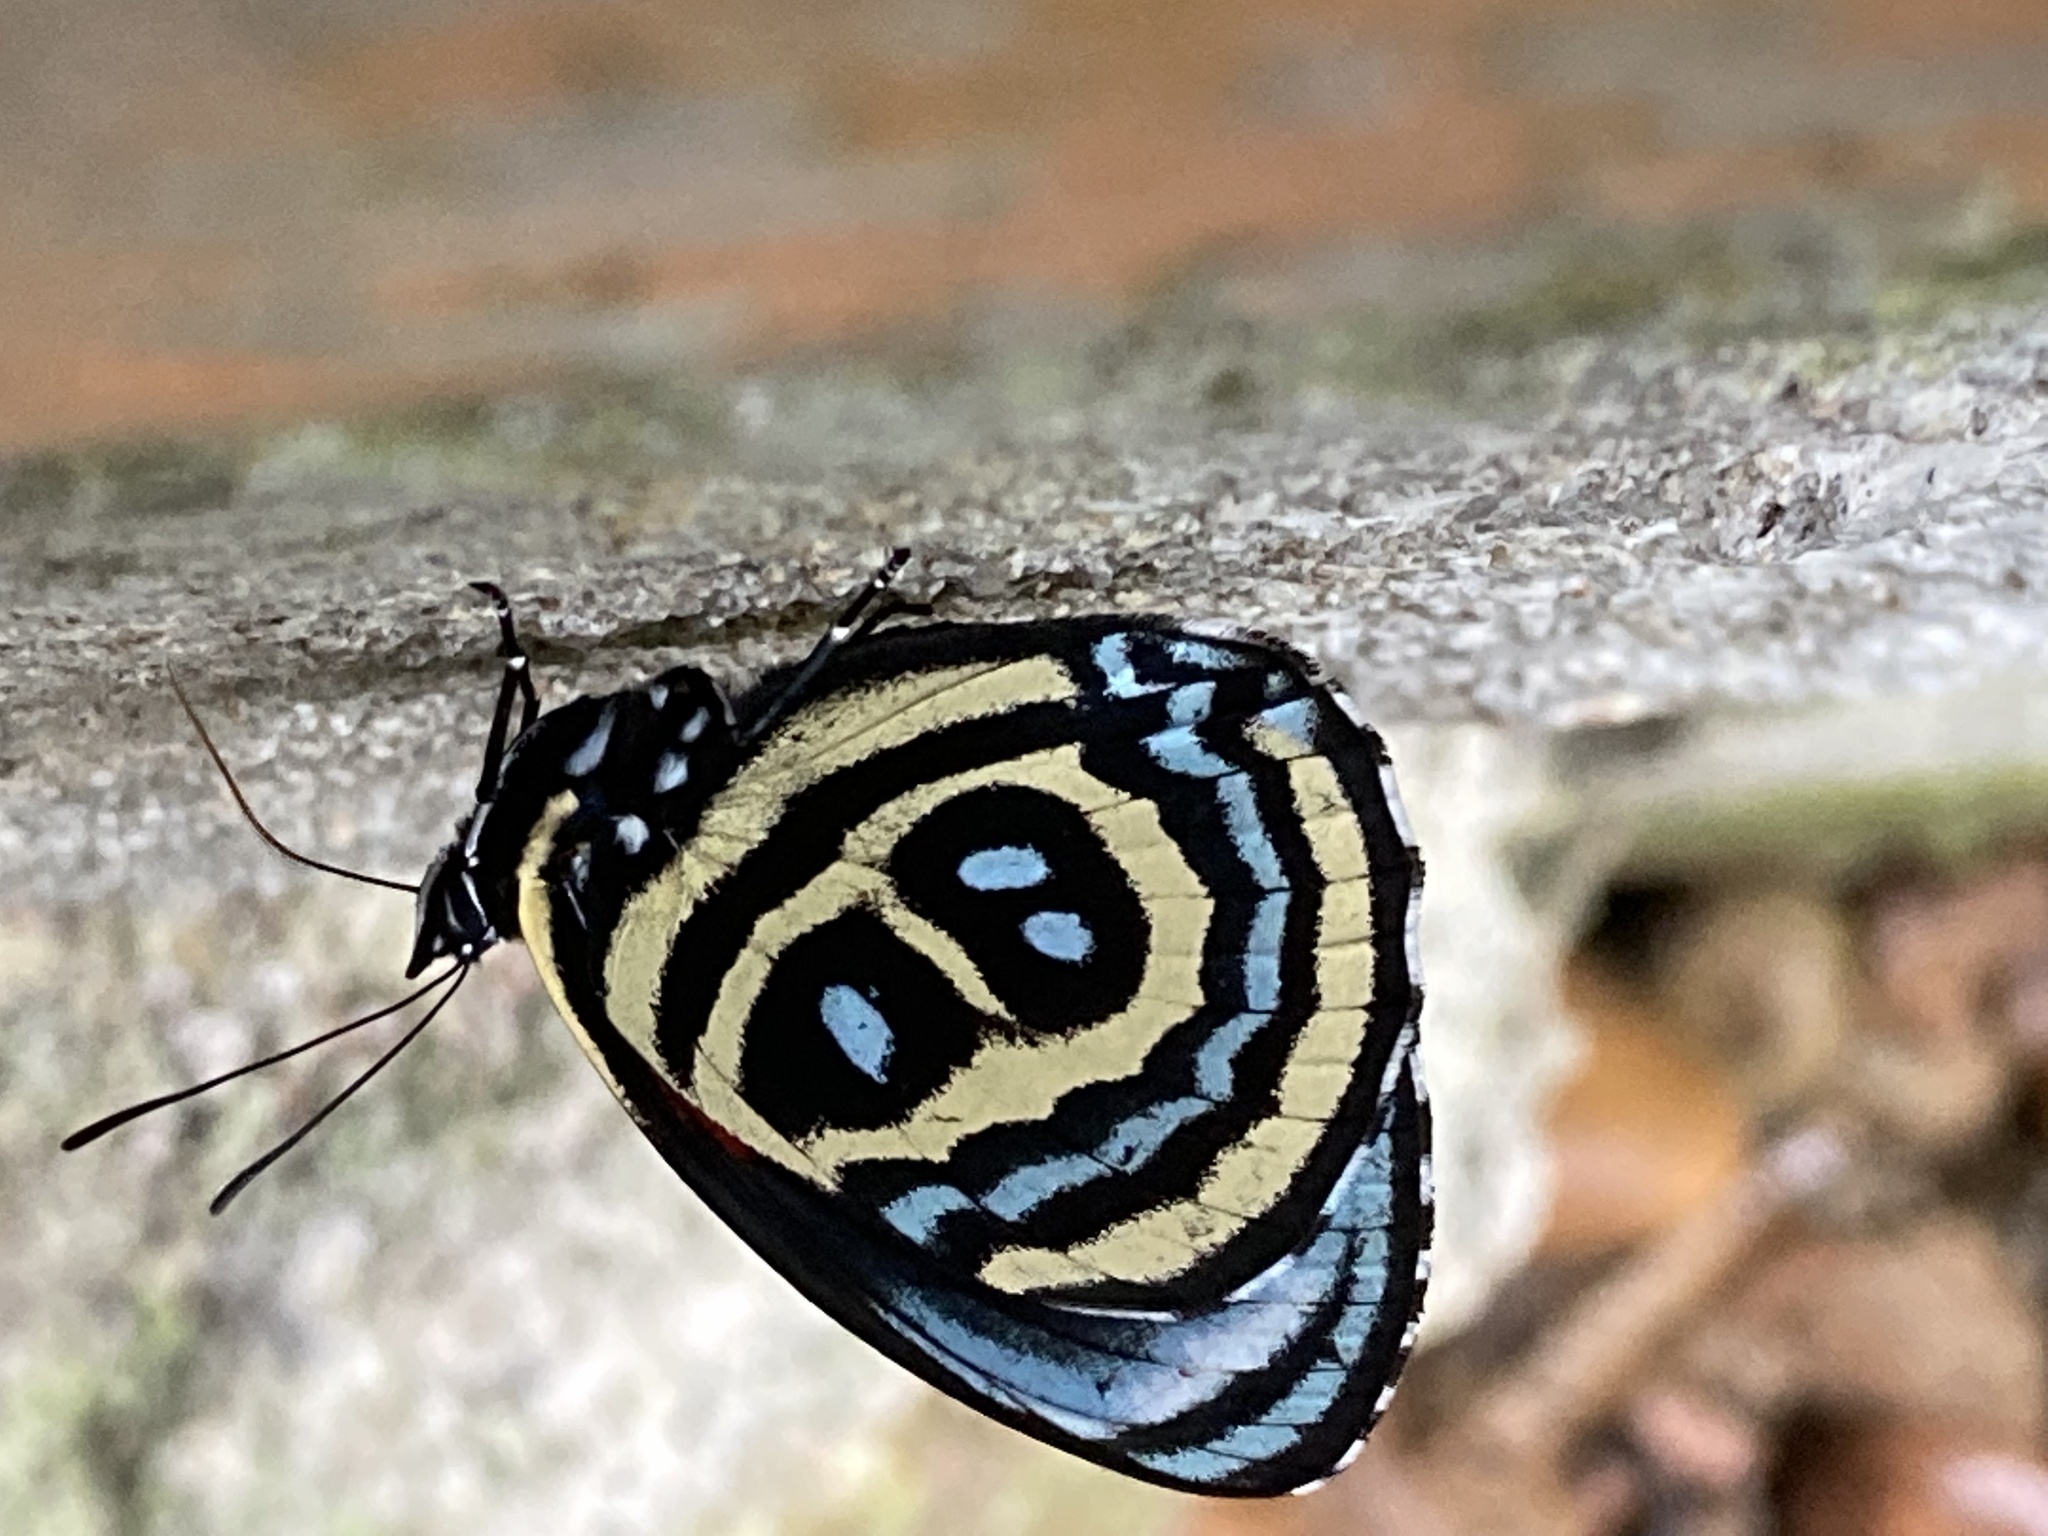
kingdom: Animalia
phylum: Arthropoda
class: Insecta
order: Lepidoptera
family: Nymphalidae
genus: Catagramma
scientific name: Catagramma
